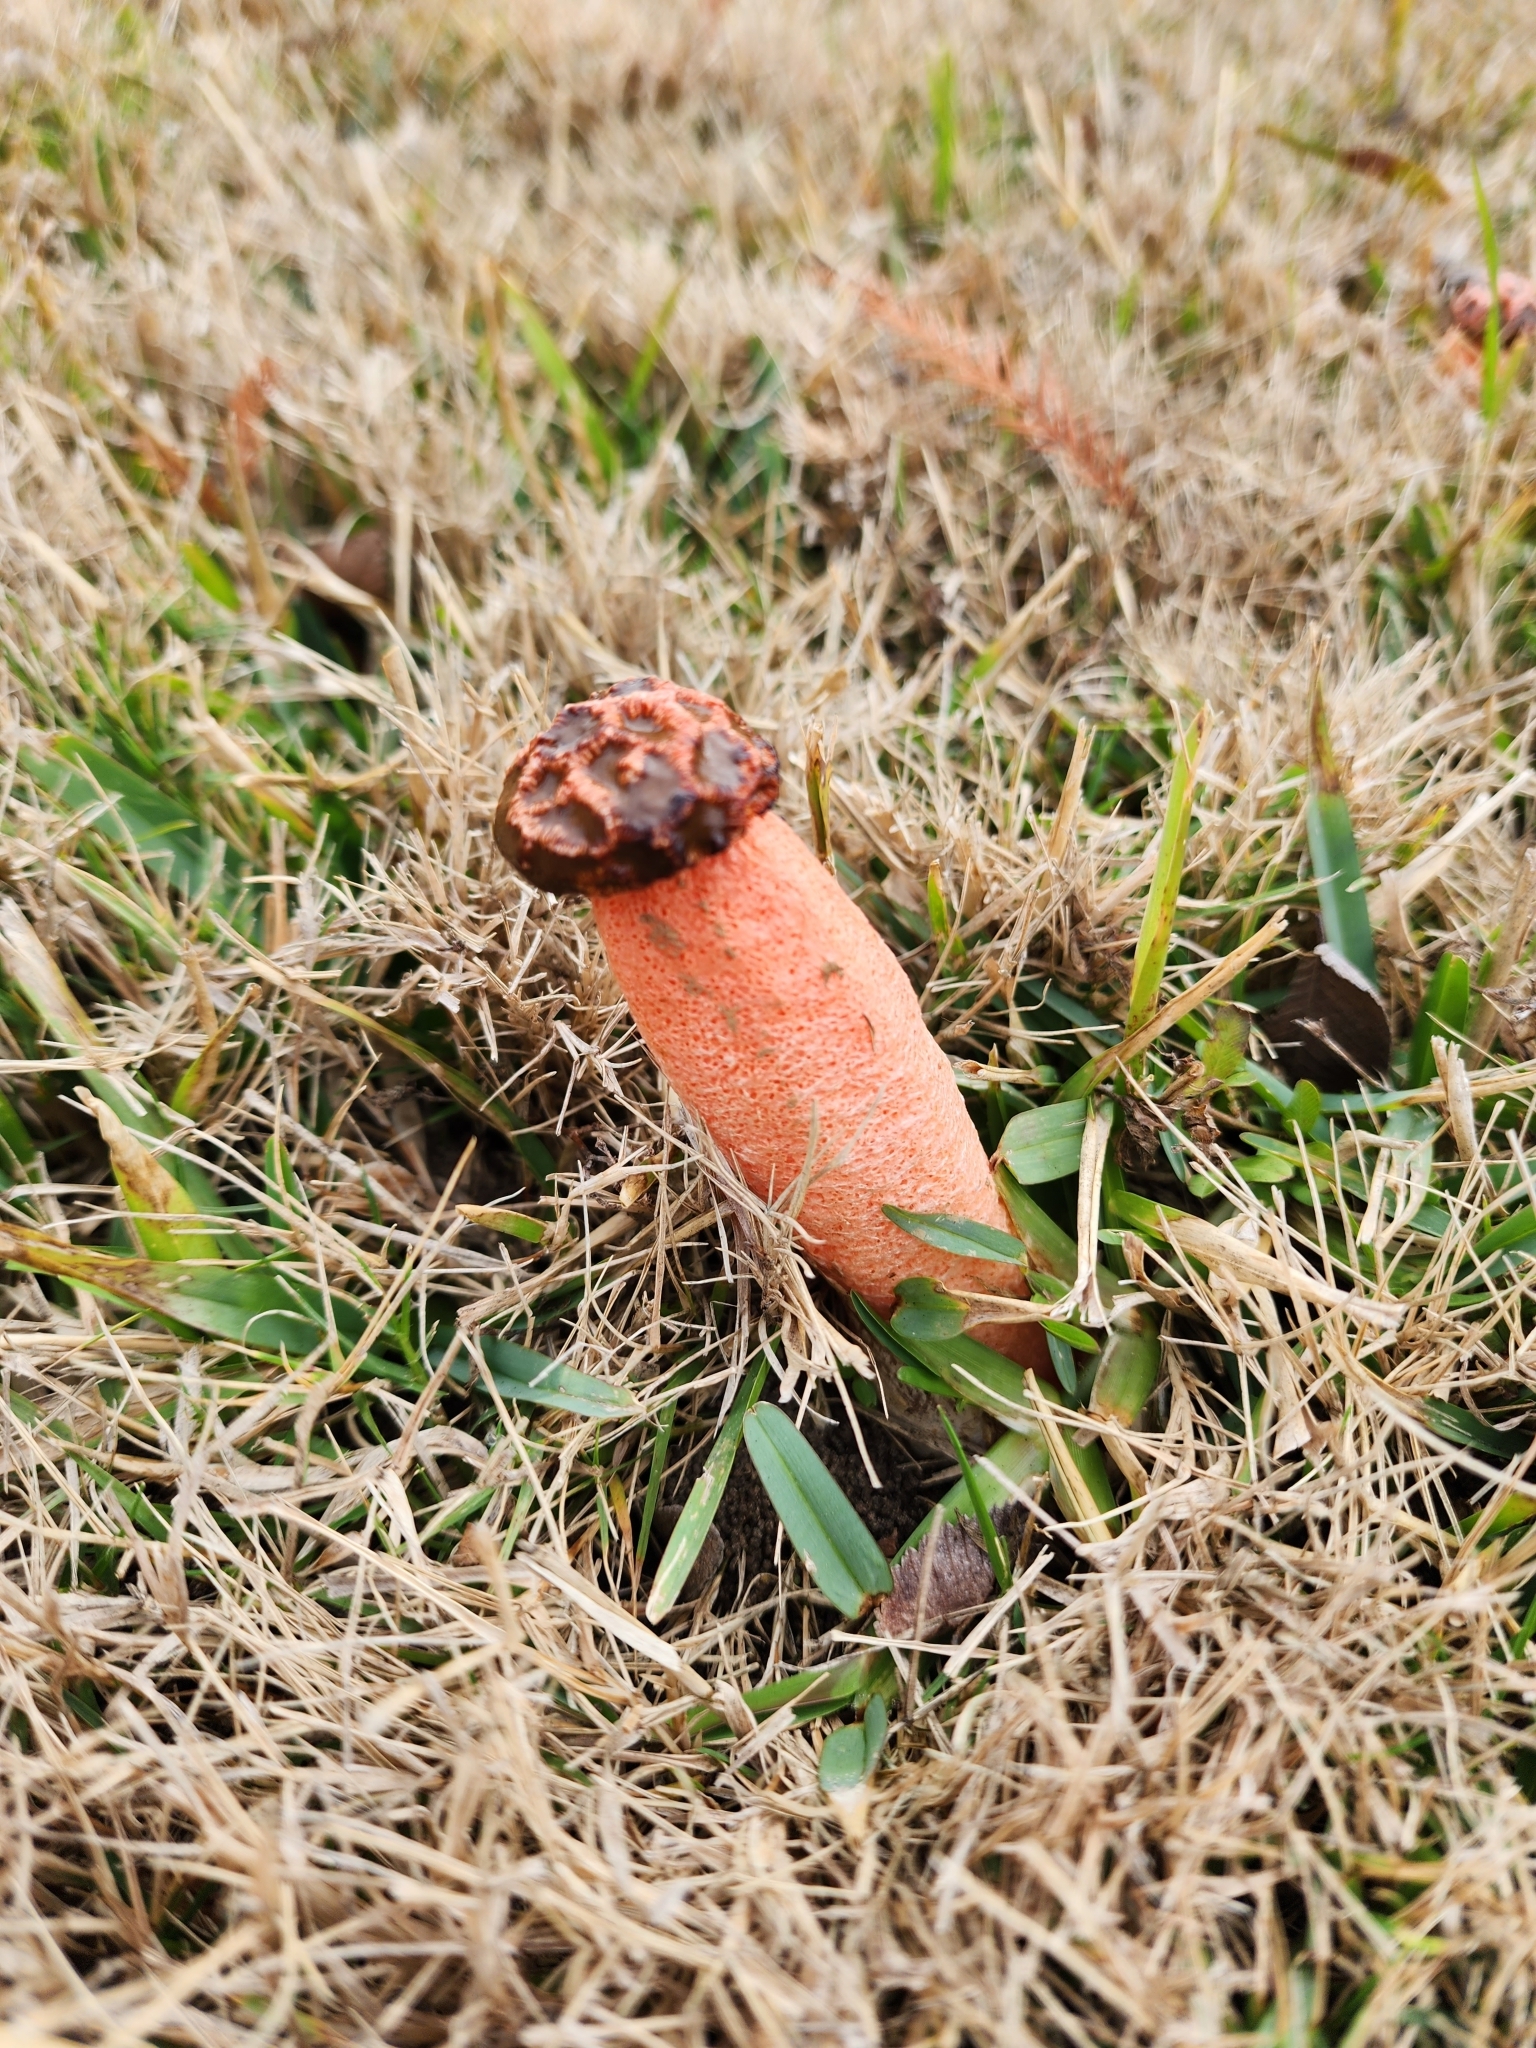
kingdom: Fungi
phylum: Basidiomycota
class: Agaricomycetes
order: Phallales
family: Phallaceae
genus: Lysurus
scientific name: Lysurus periphragmoides
